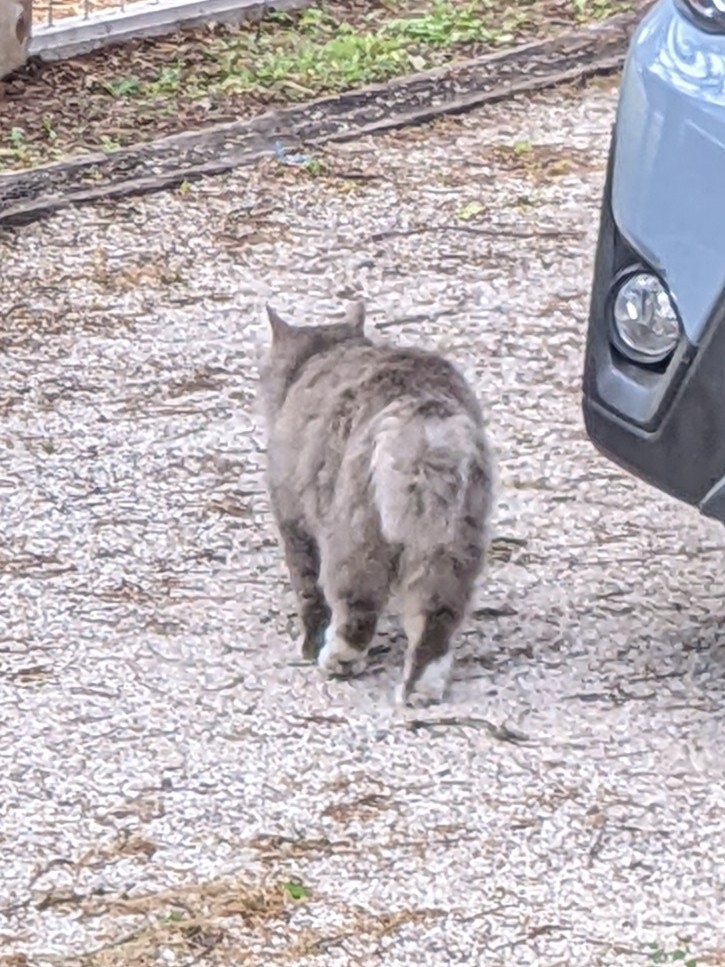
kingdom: Animalia
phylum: Chordata
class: Mammalia
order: Carnivora
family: Felidae
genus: Felis
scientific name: Felis catus
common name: Domestic cat
